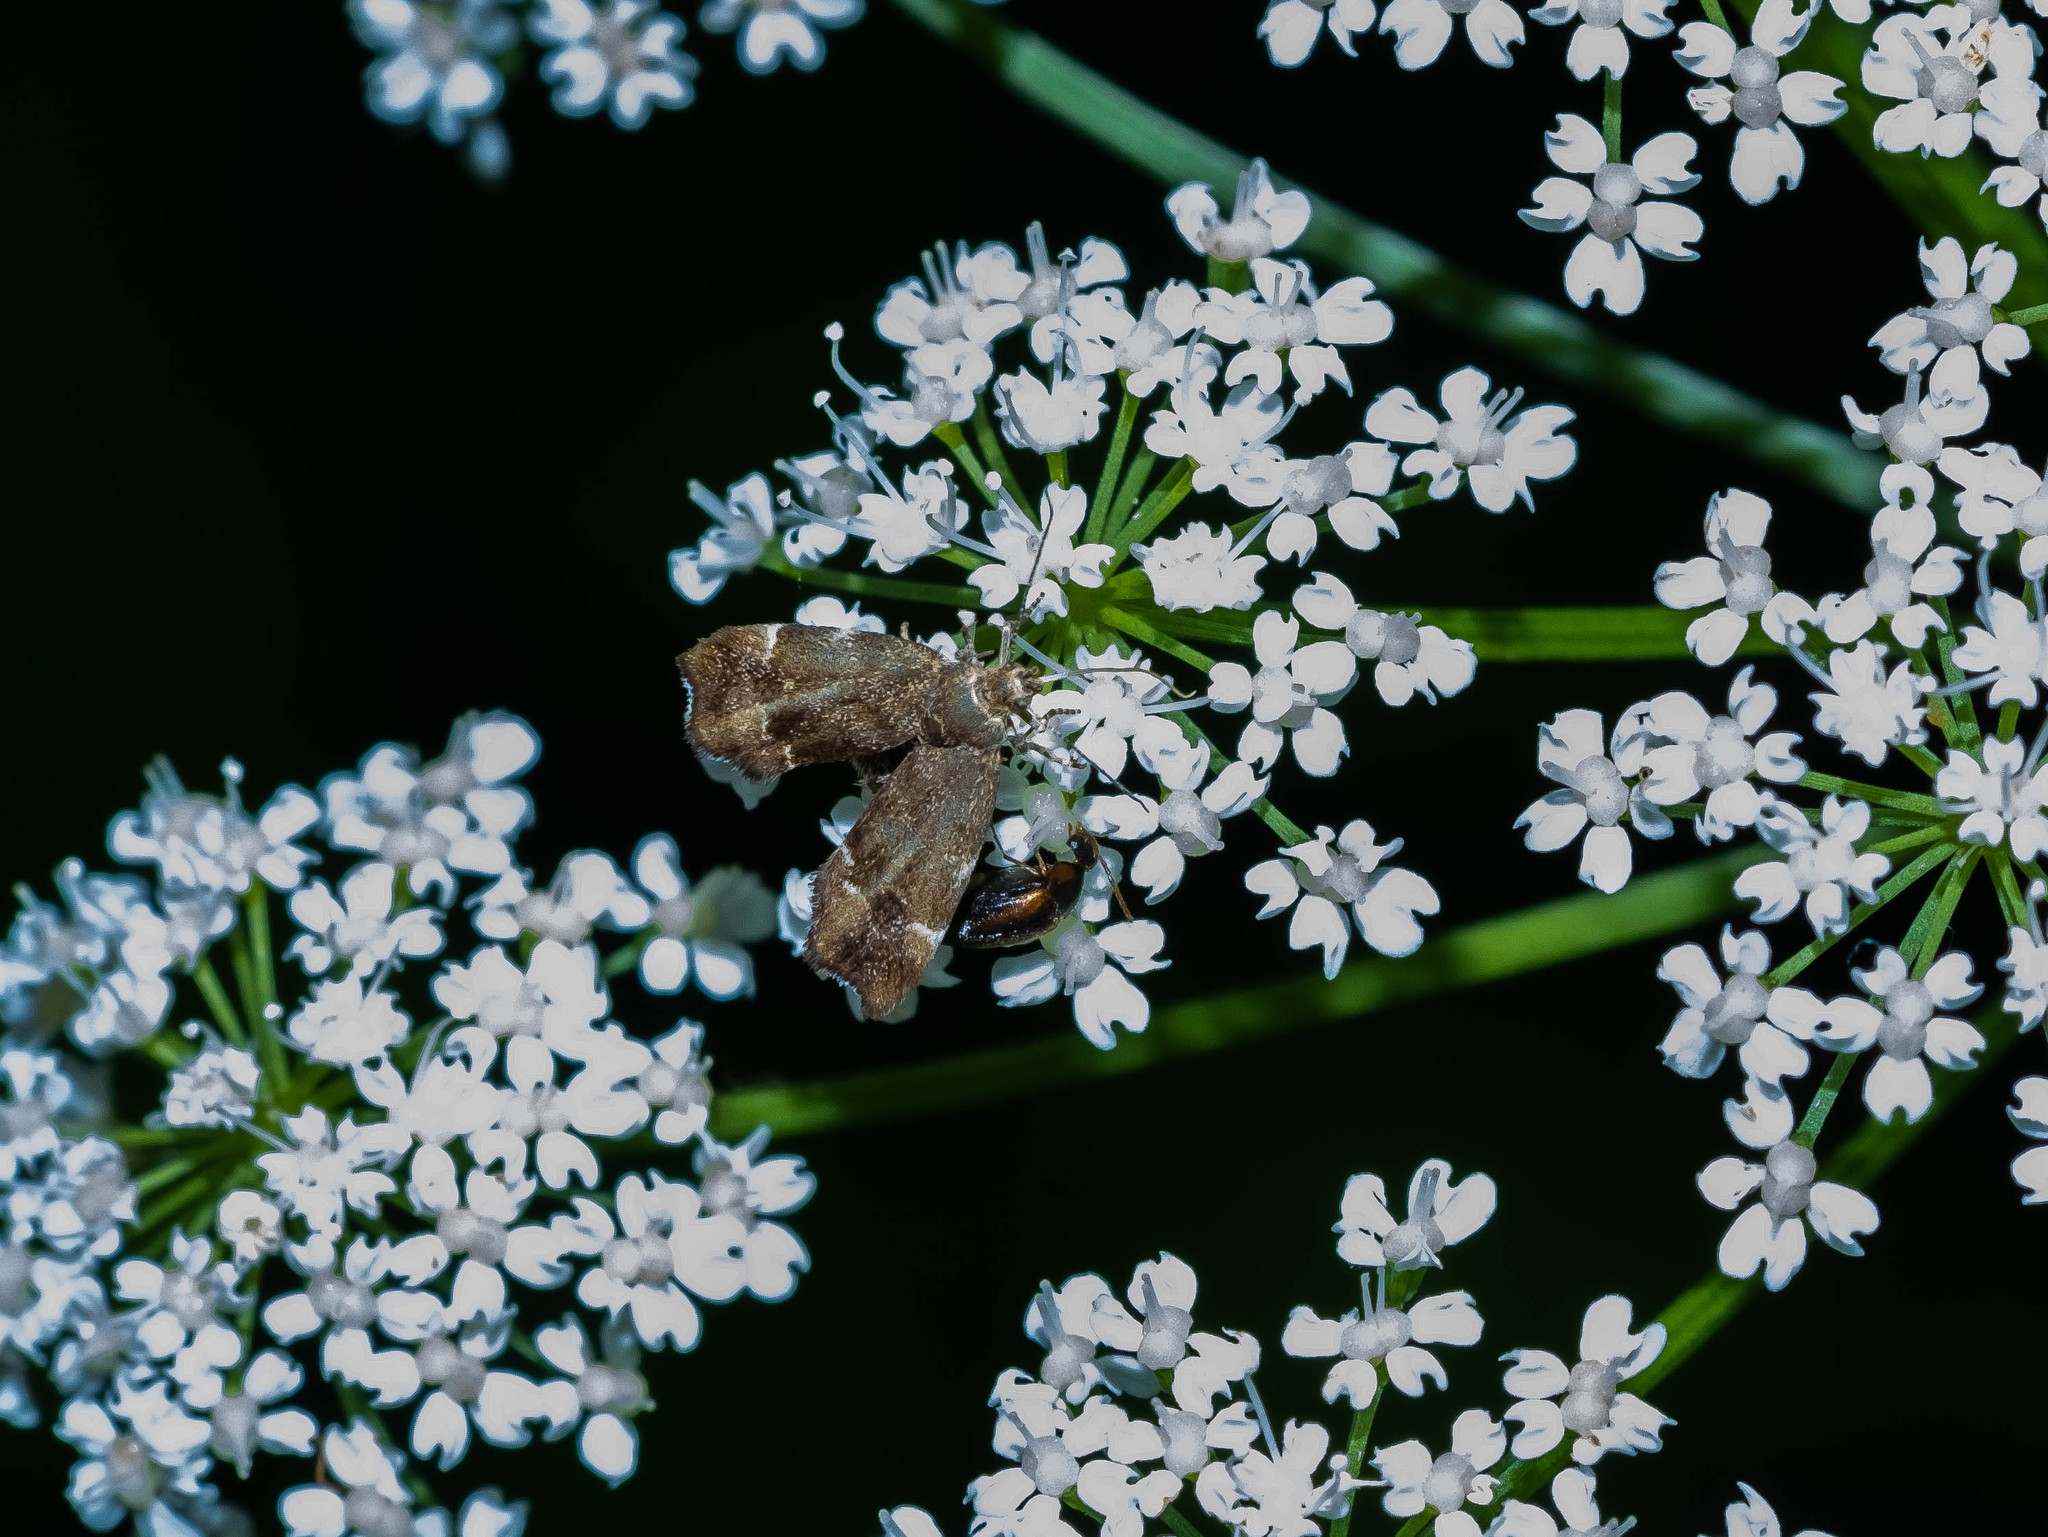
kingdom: Animalia
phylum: Arthropoda
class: Insecta
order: Lepidoptera
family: Choreutidae
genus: Anthophila
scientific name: Anthophila fabriciana
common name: Nettle-tap
